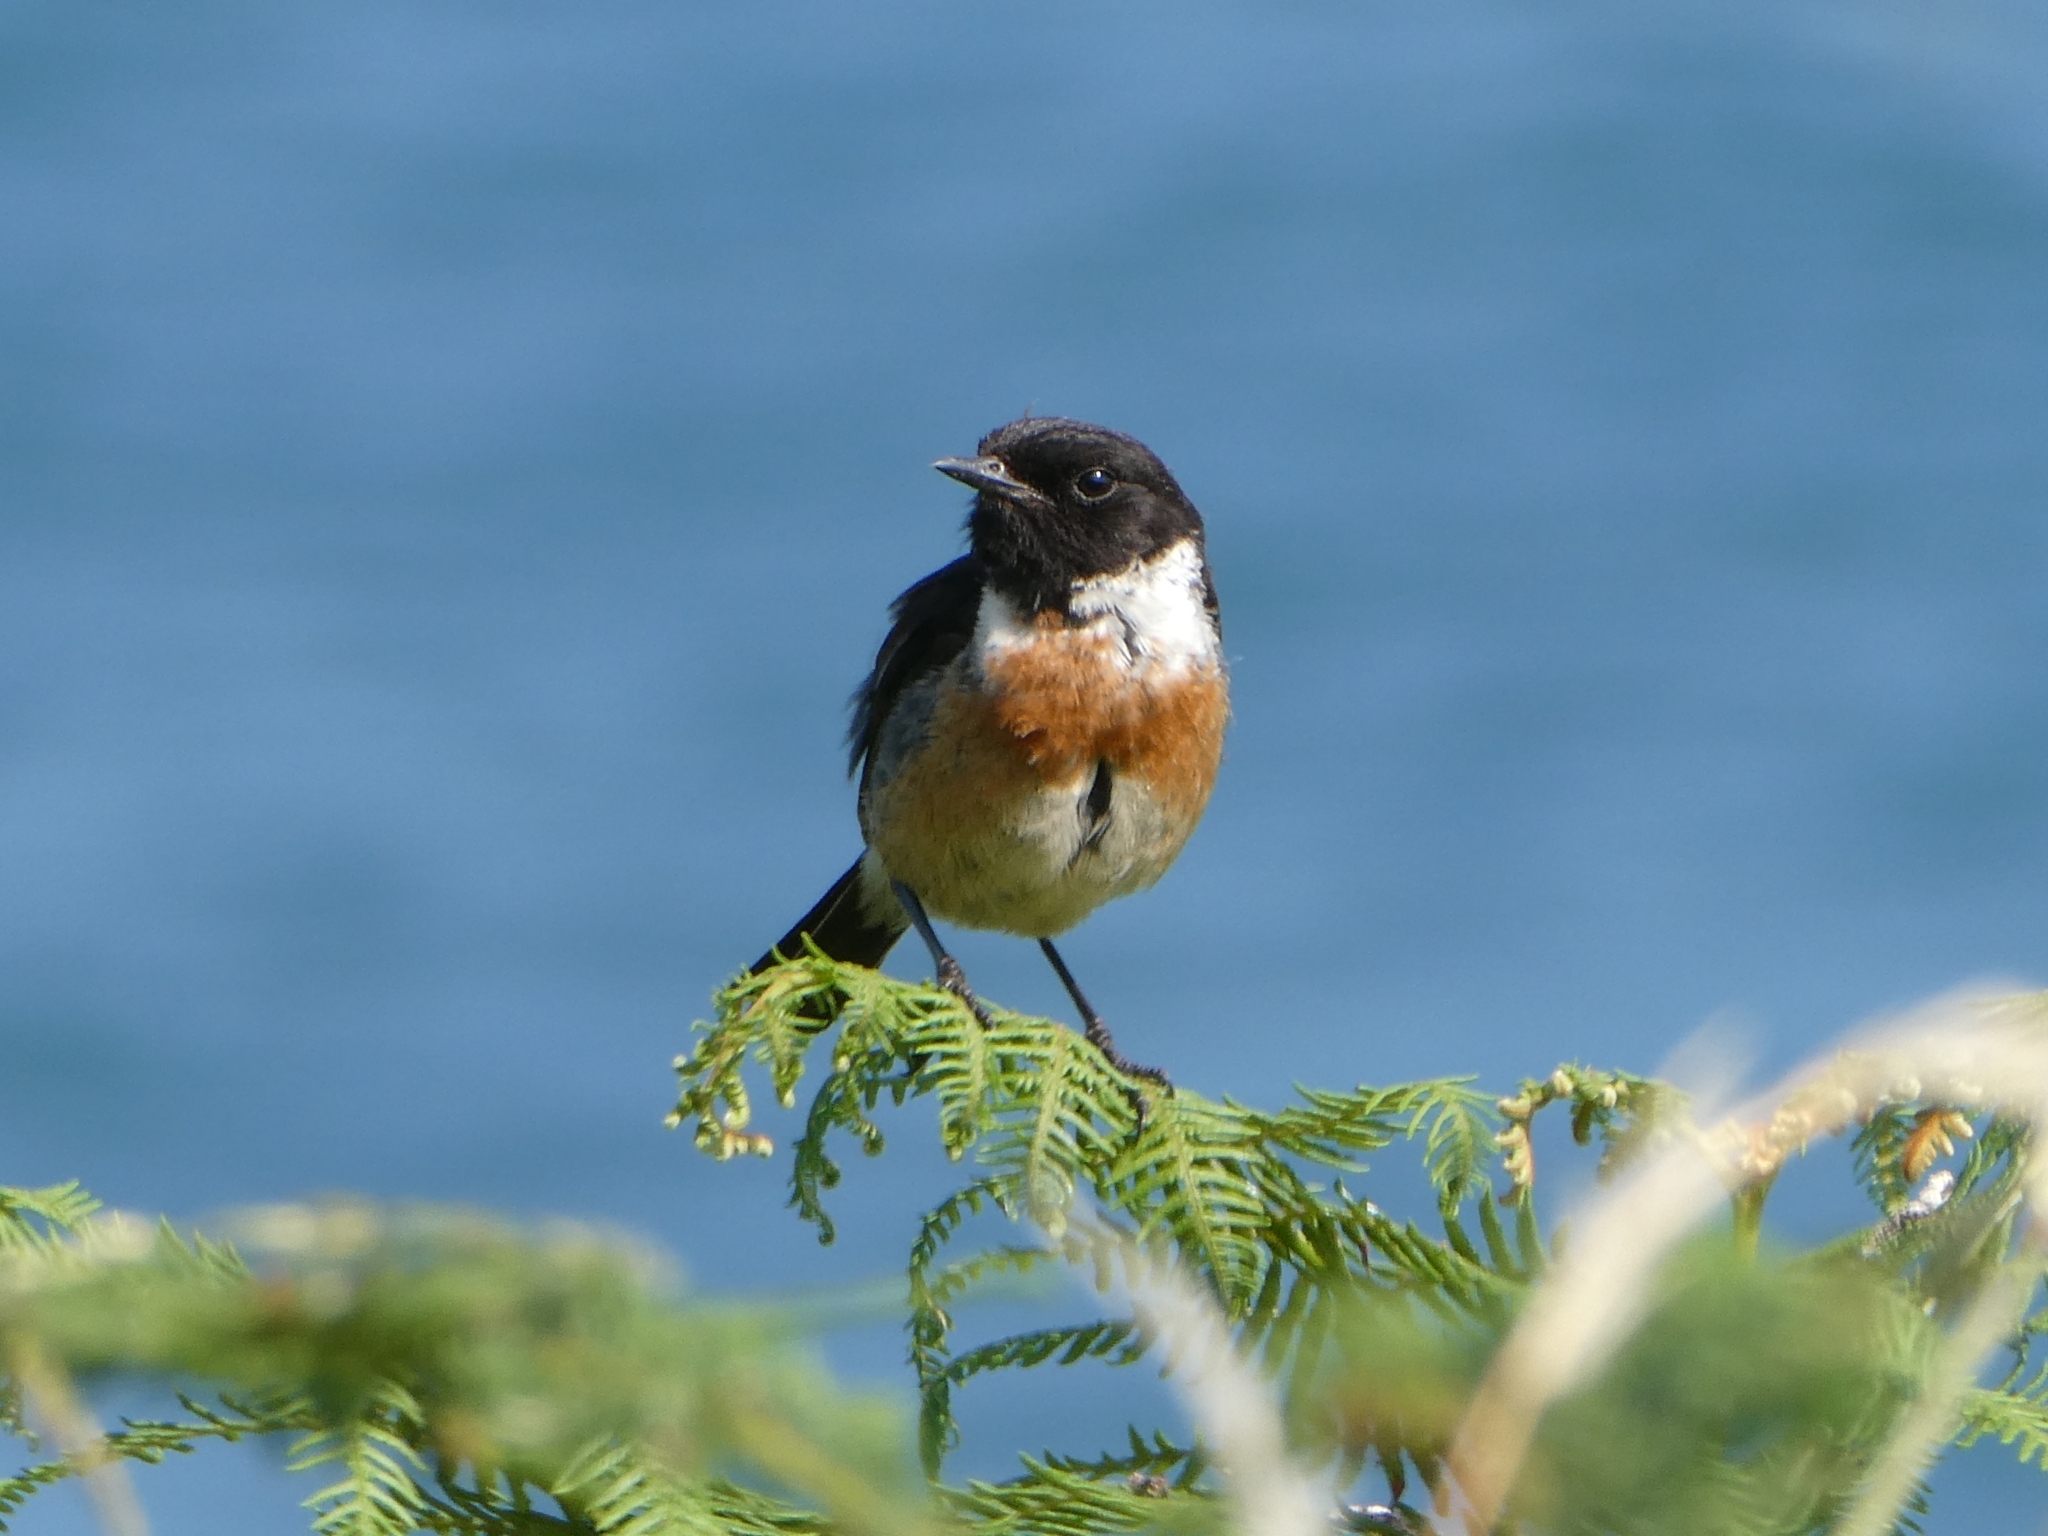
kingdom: Animalia
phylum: Chordata
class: Aves
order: Passeriformes
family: Muscicapidae
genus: Saxicola
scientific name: Saxicola rubicola
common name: European stonechat
